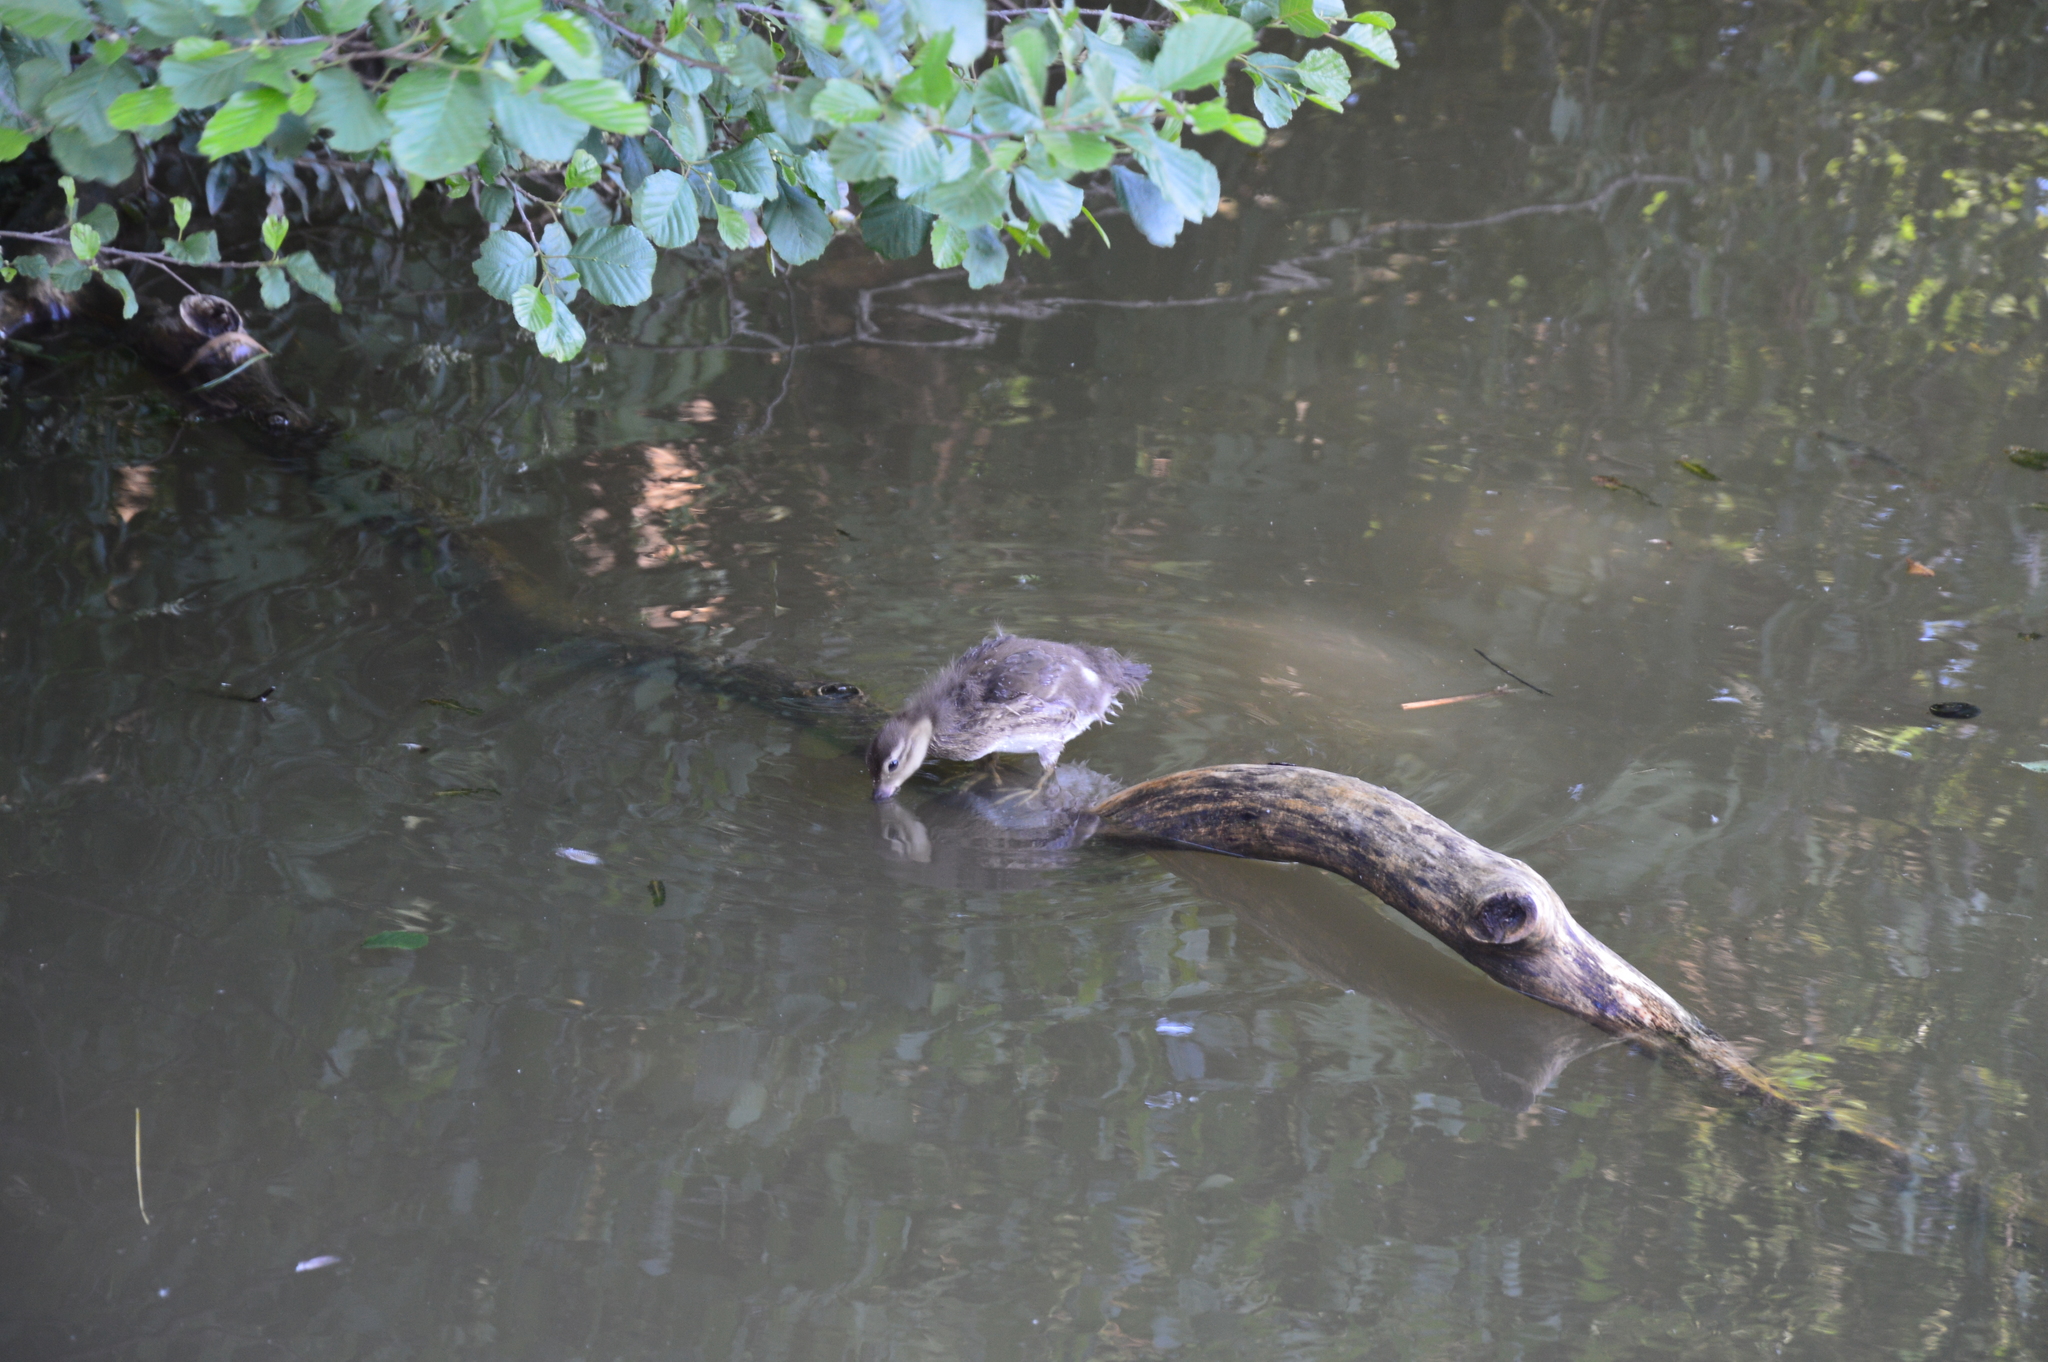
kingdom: Animalia
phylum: Chordata
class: Aves
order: Anseriformes
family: Anatidae
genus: Aix
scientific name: Aix galericulata
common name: Mandarin duck
